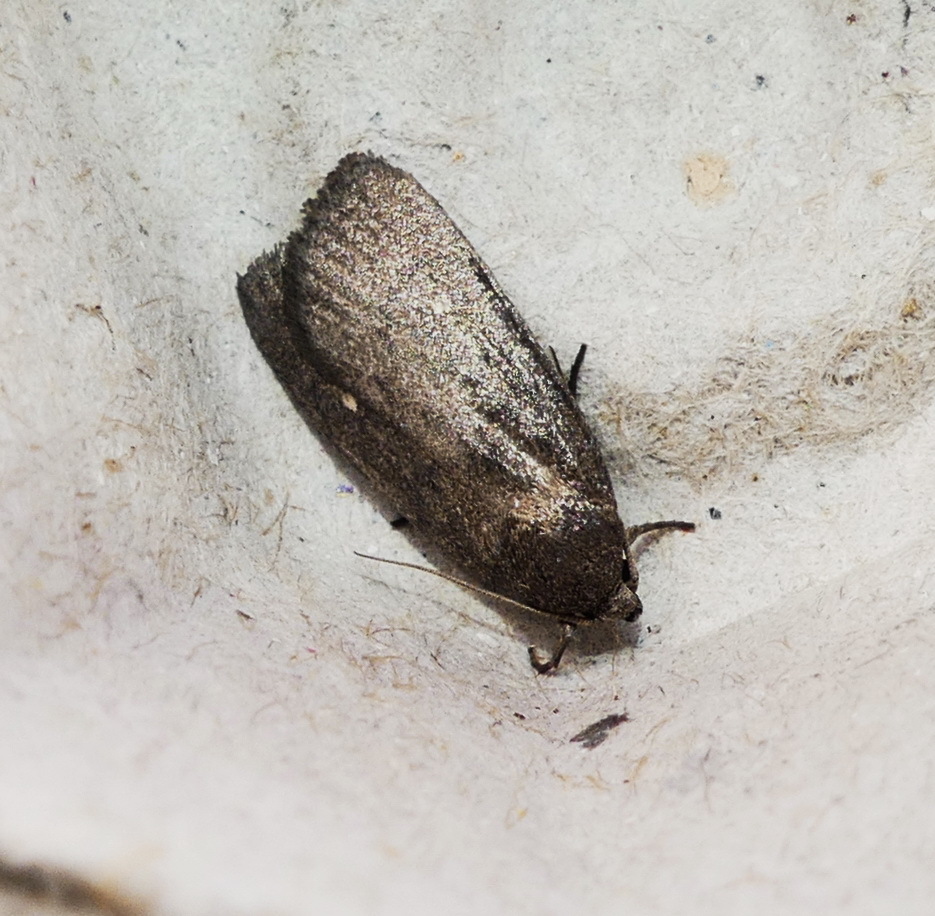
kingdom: Animalia
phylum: Arthropoda
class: Insecta
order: Lepidoptera
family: Noctuidae
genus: Proxenus
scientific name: Proxenus miranda
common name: Miranda moth
